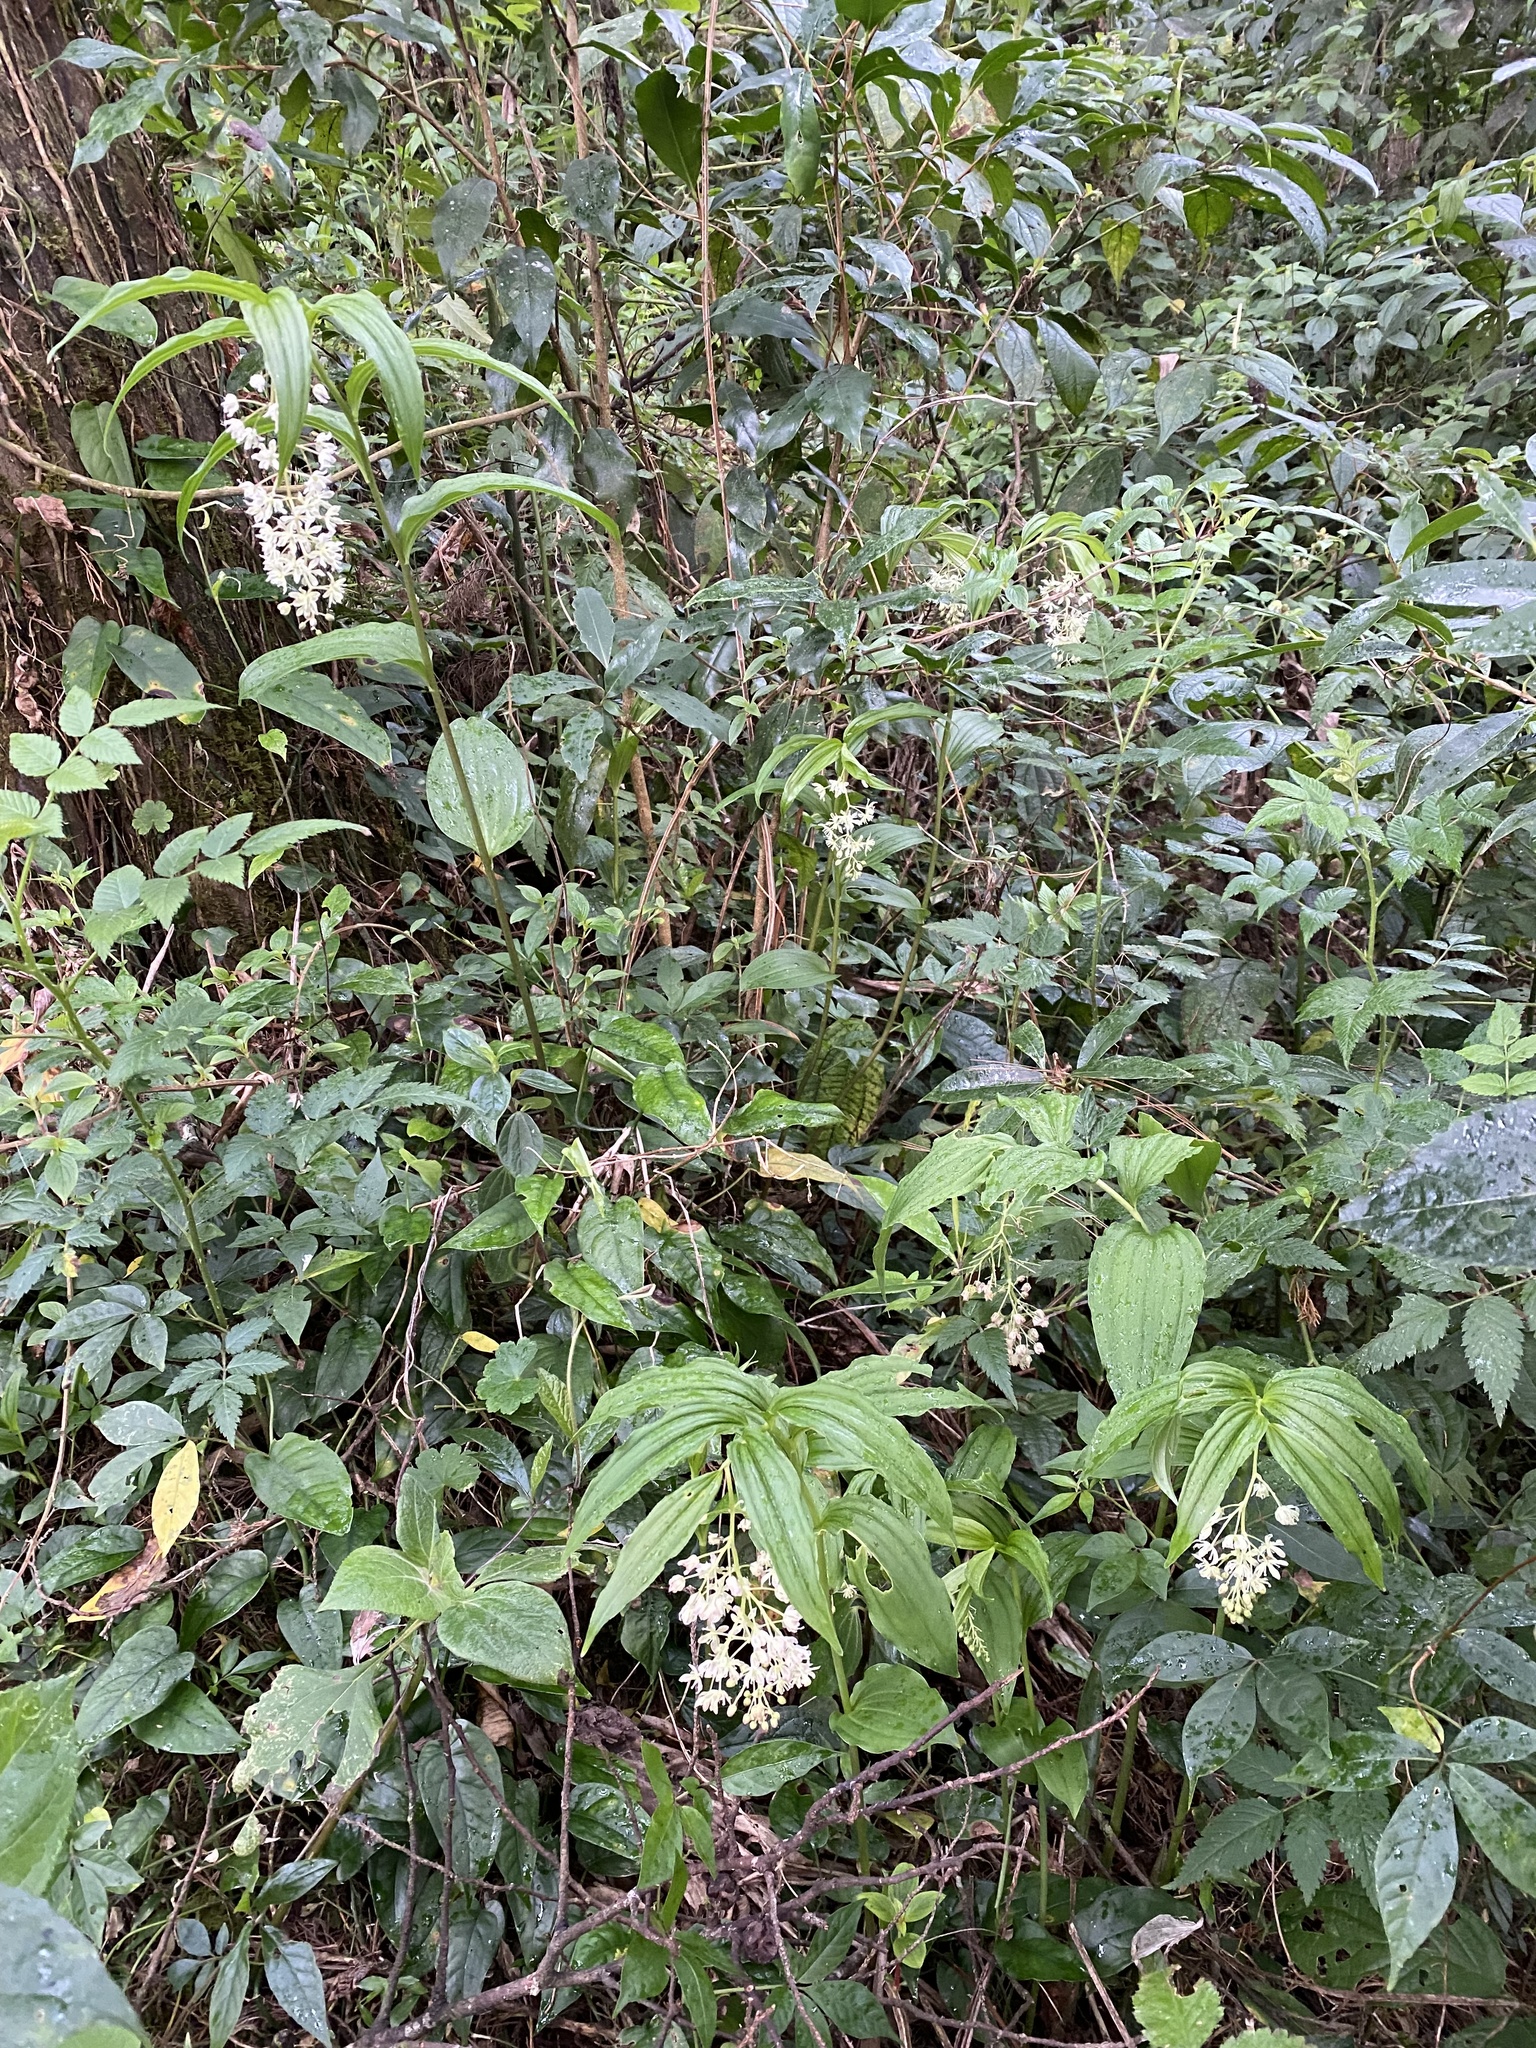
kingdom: Plantae
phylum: Tracheophyta
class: Liliopsida
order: Asparagales
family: Asparagaceae
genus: Maianthemum
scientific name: Maianthemum flexuosum
